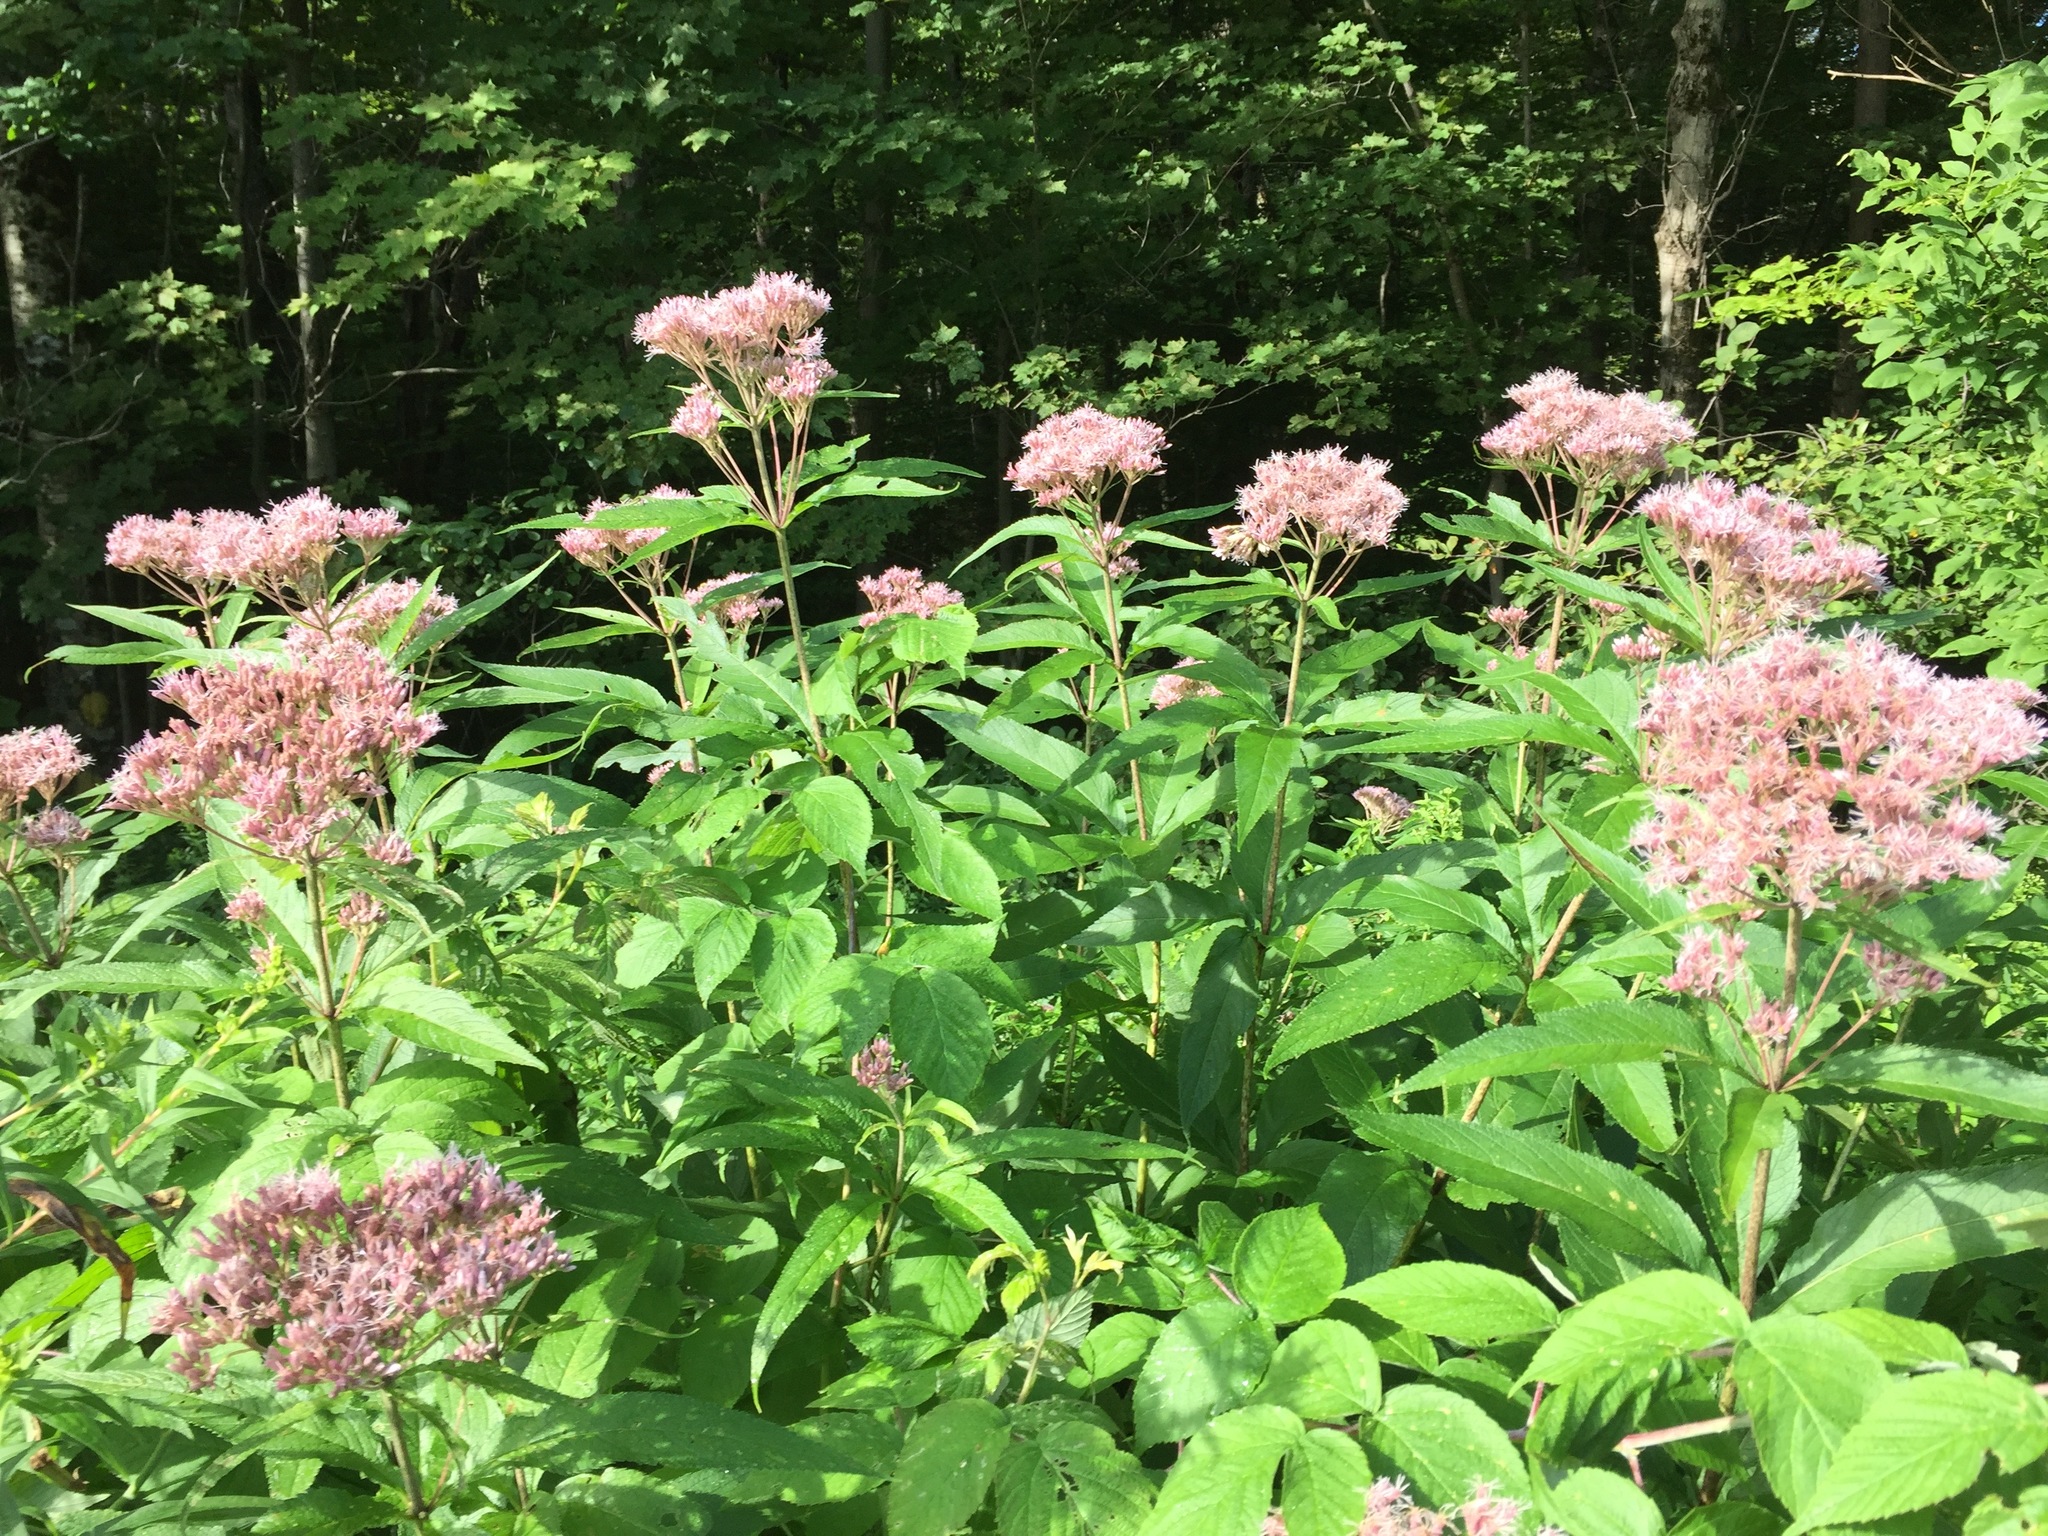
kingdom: Plantae
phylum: Tracheophyta
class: Magnoliopsida
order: Asterales
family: Asteraceae
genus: Eutrochium
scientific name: Eutrochium maculatum
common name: Spotted joe pye weed
